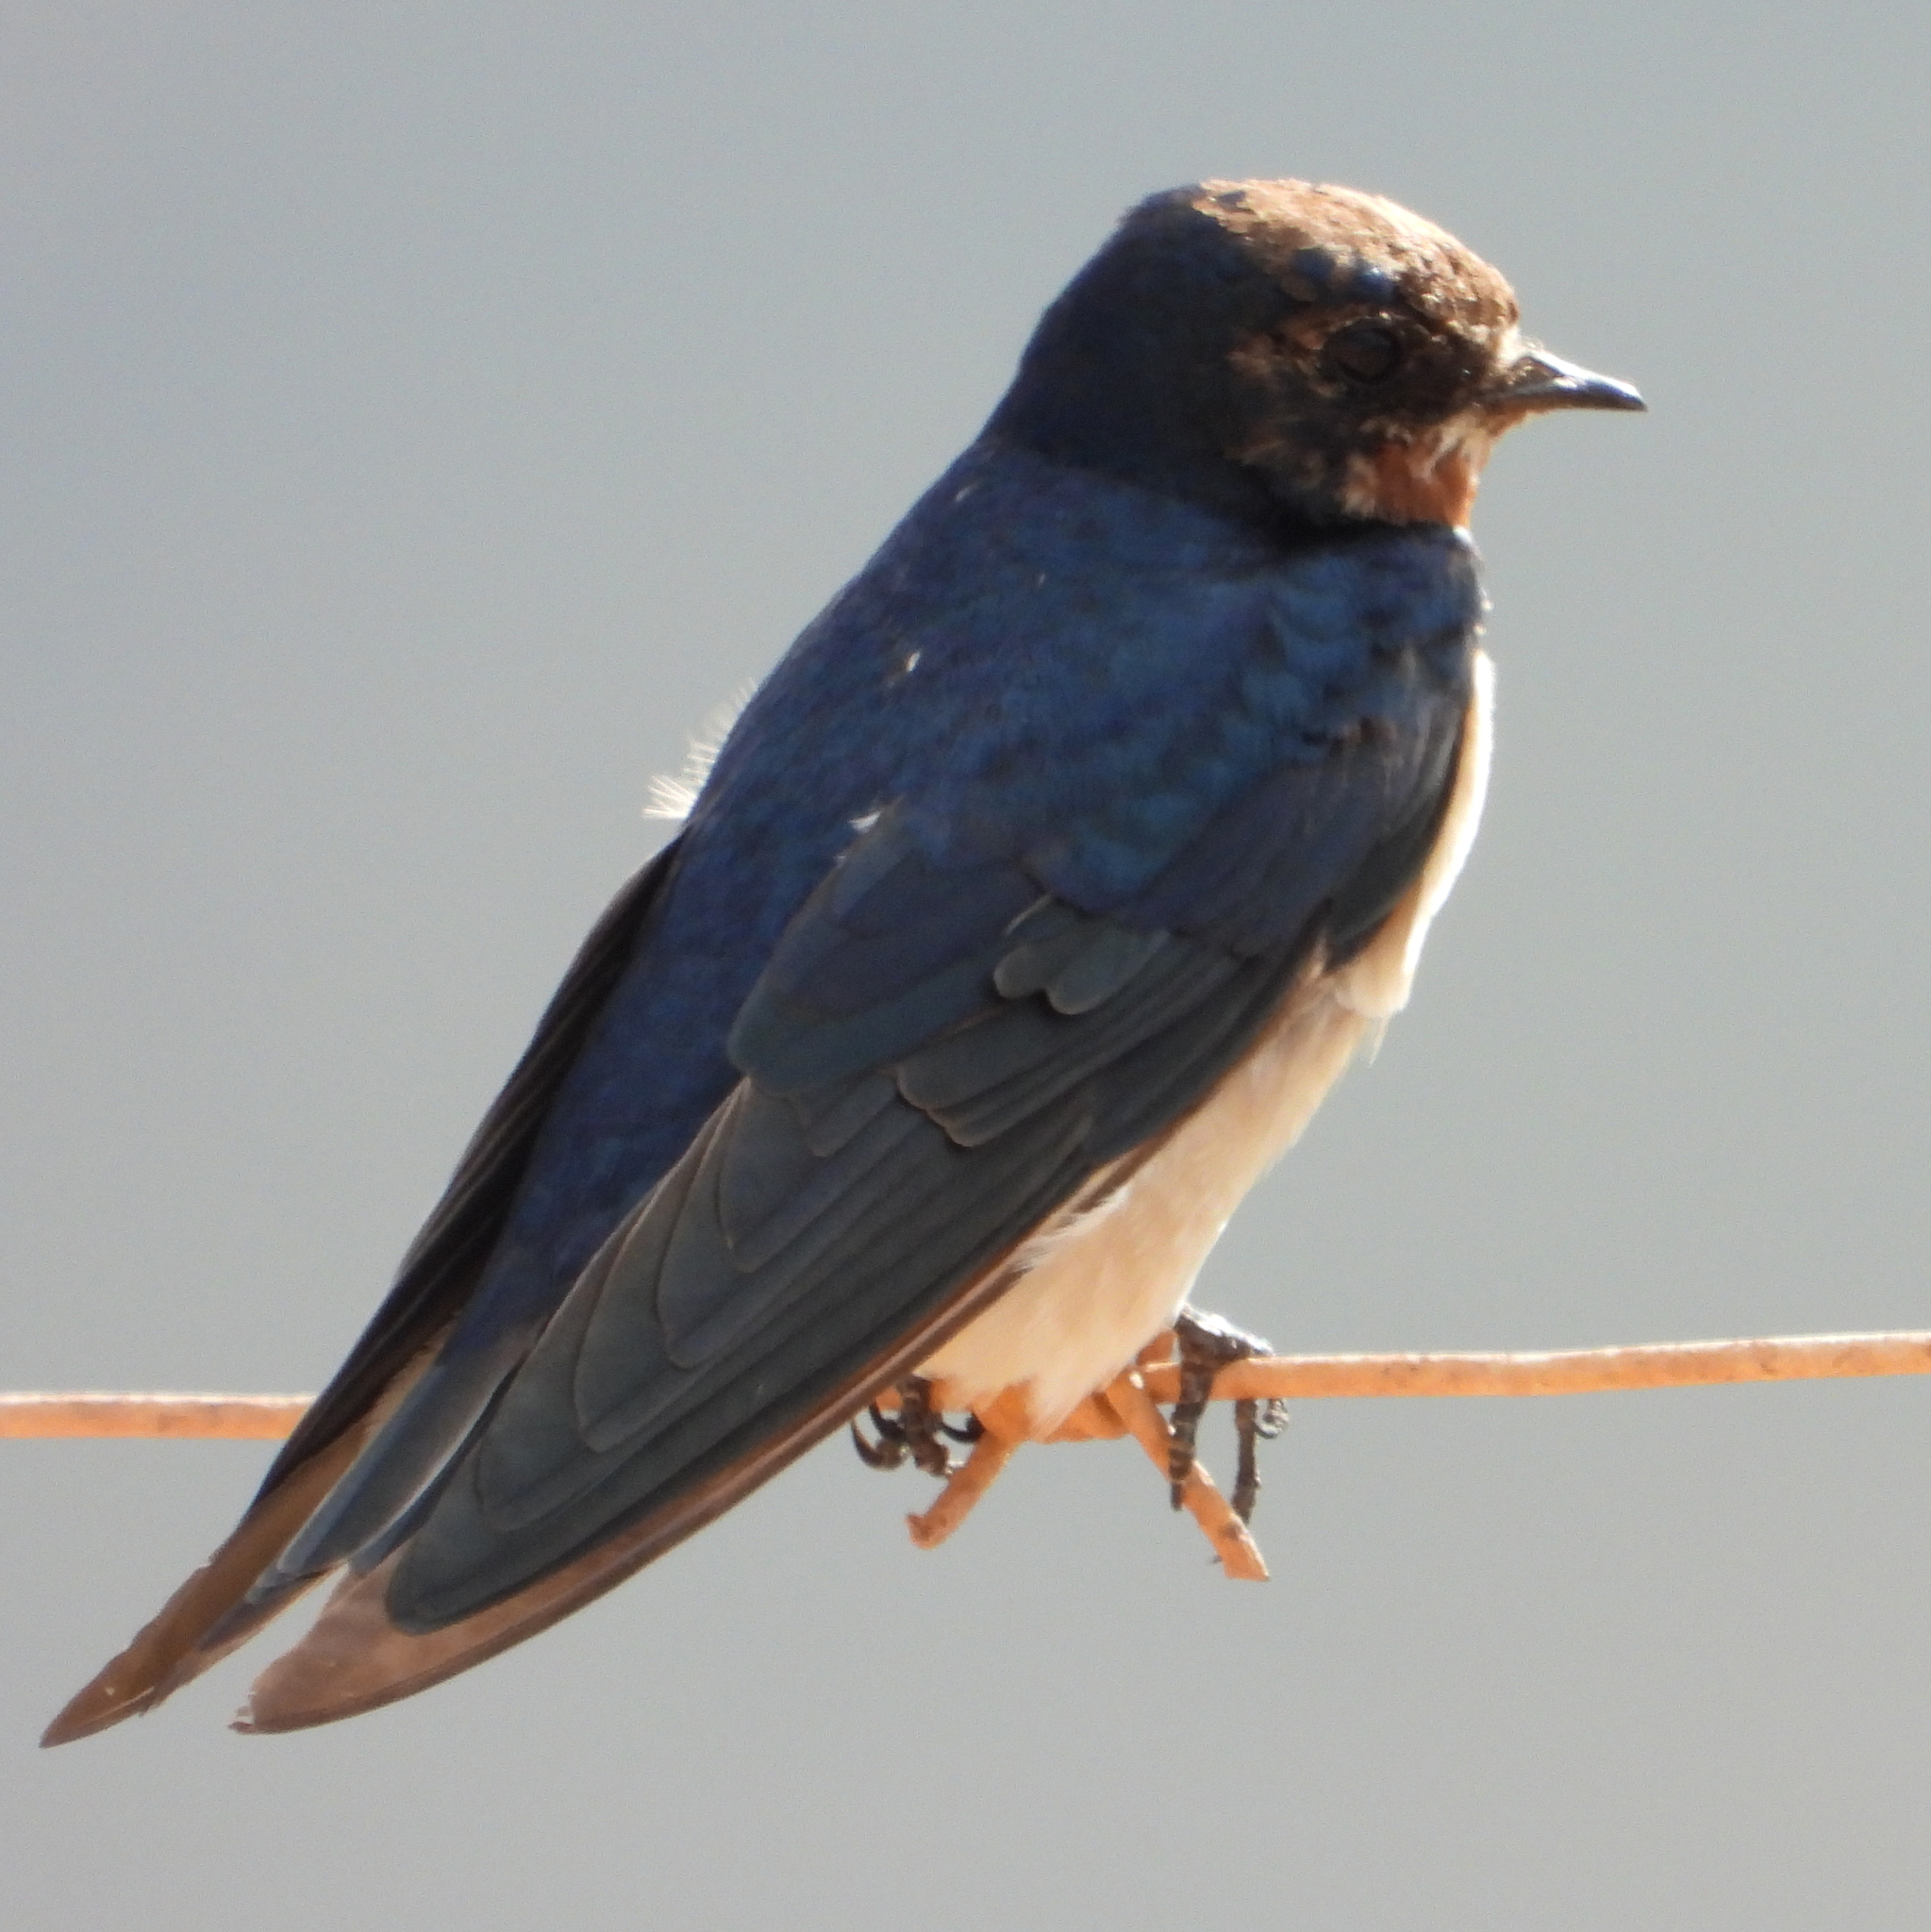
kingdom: Animalia
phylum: Chordata
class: Aves
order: Passeriformes
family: Hirundinidae
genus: Hirundo
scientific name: Hirundo rustica
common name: Barn swallow
